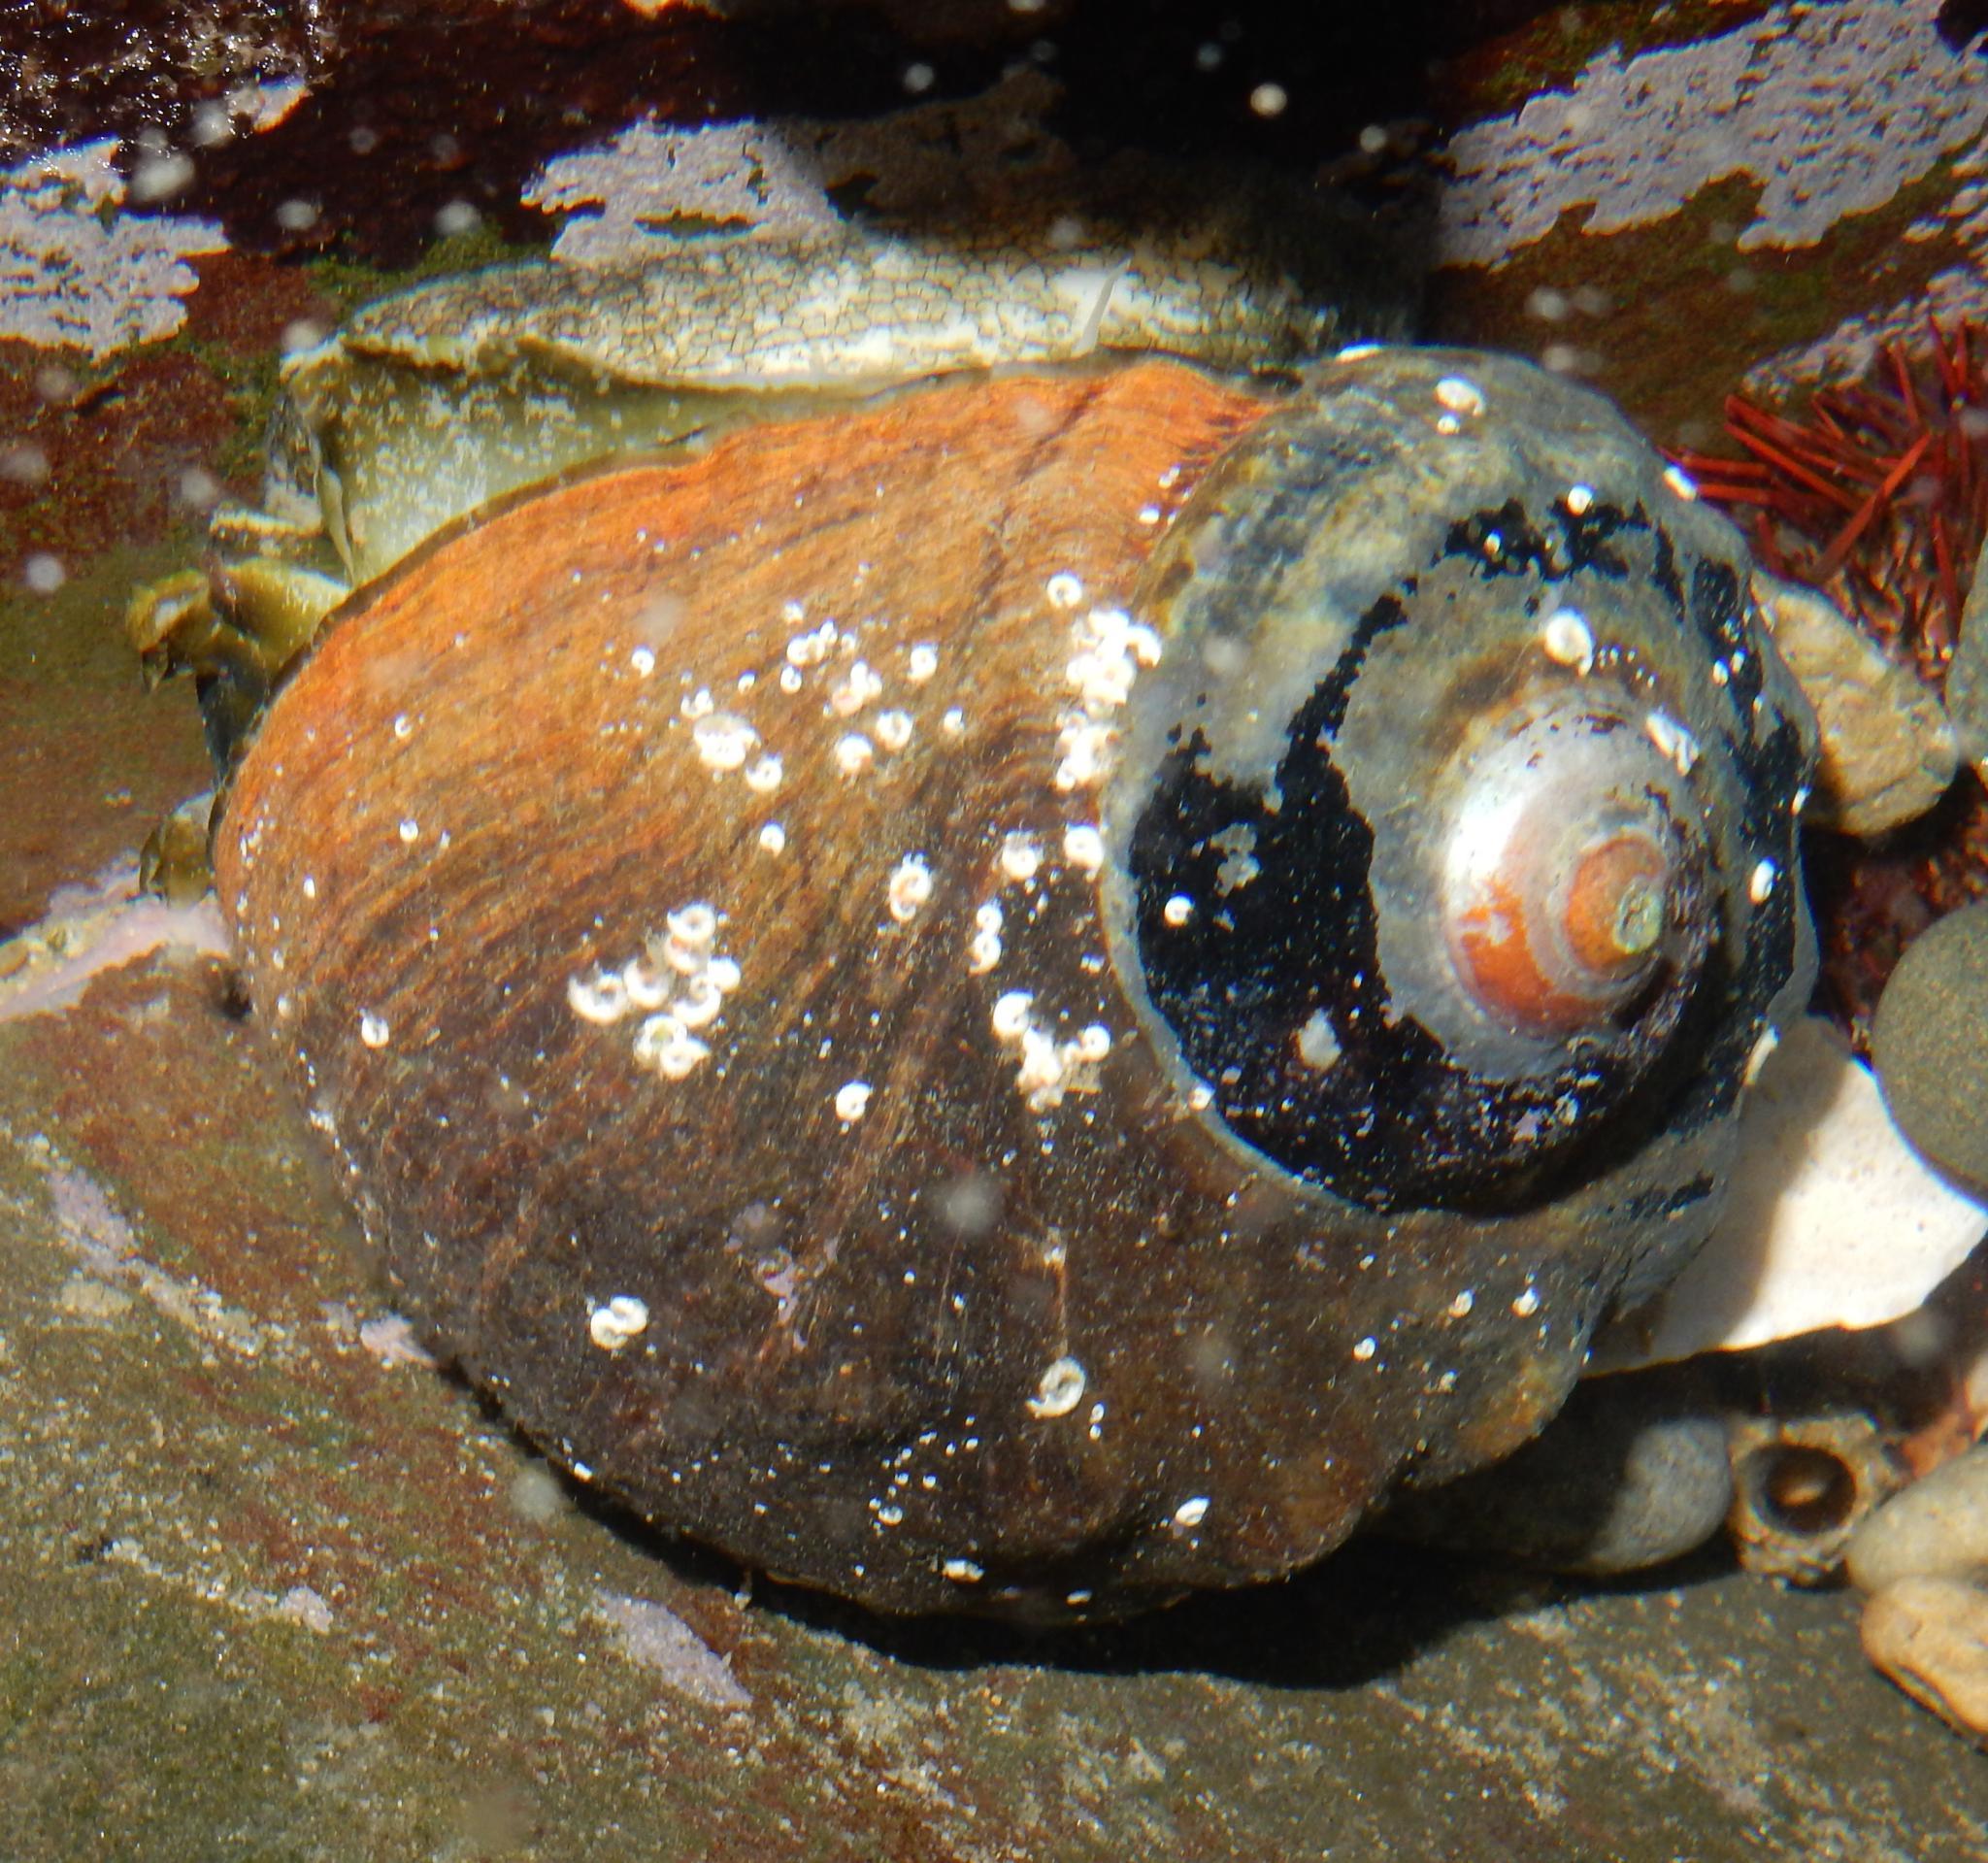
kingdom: Animalia
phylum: Mollusca
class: Gastropoda
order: Trochida
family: Turbinidae
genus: Turbo
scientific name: Turbo sarmaticus
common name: South african turban
